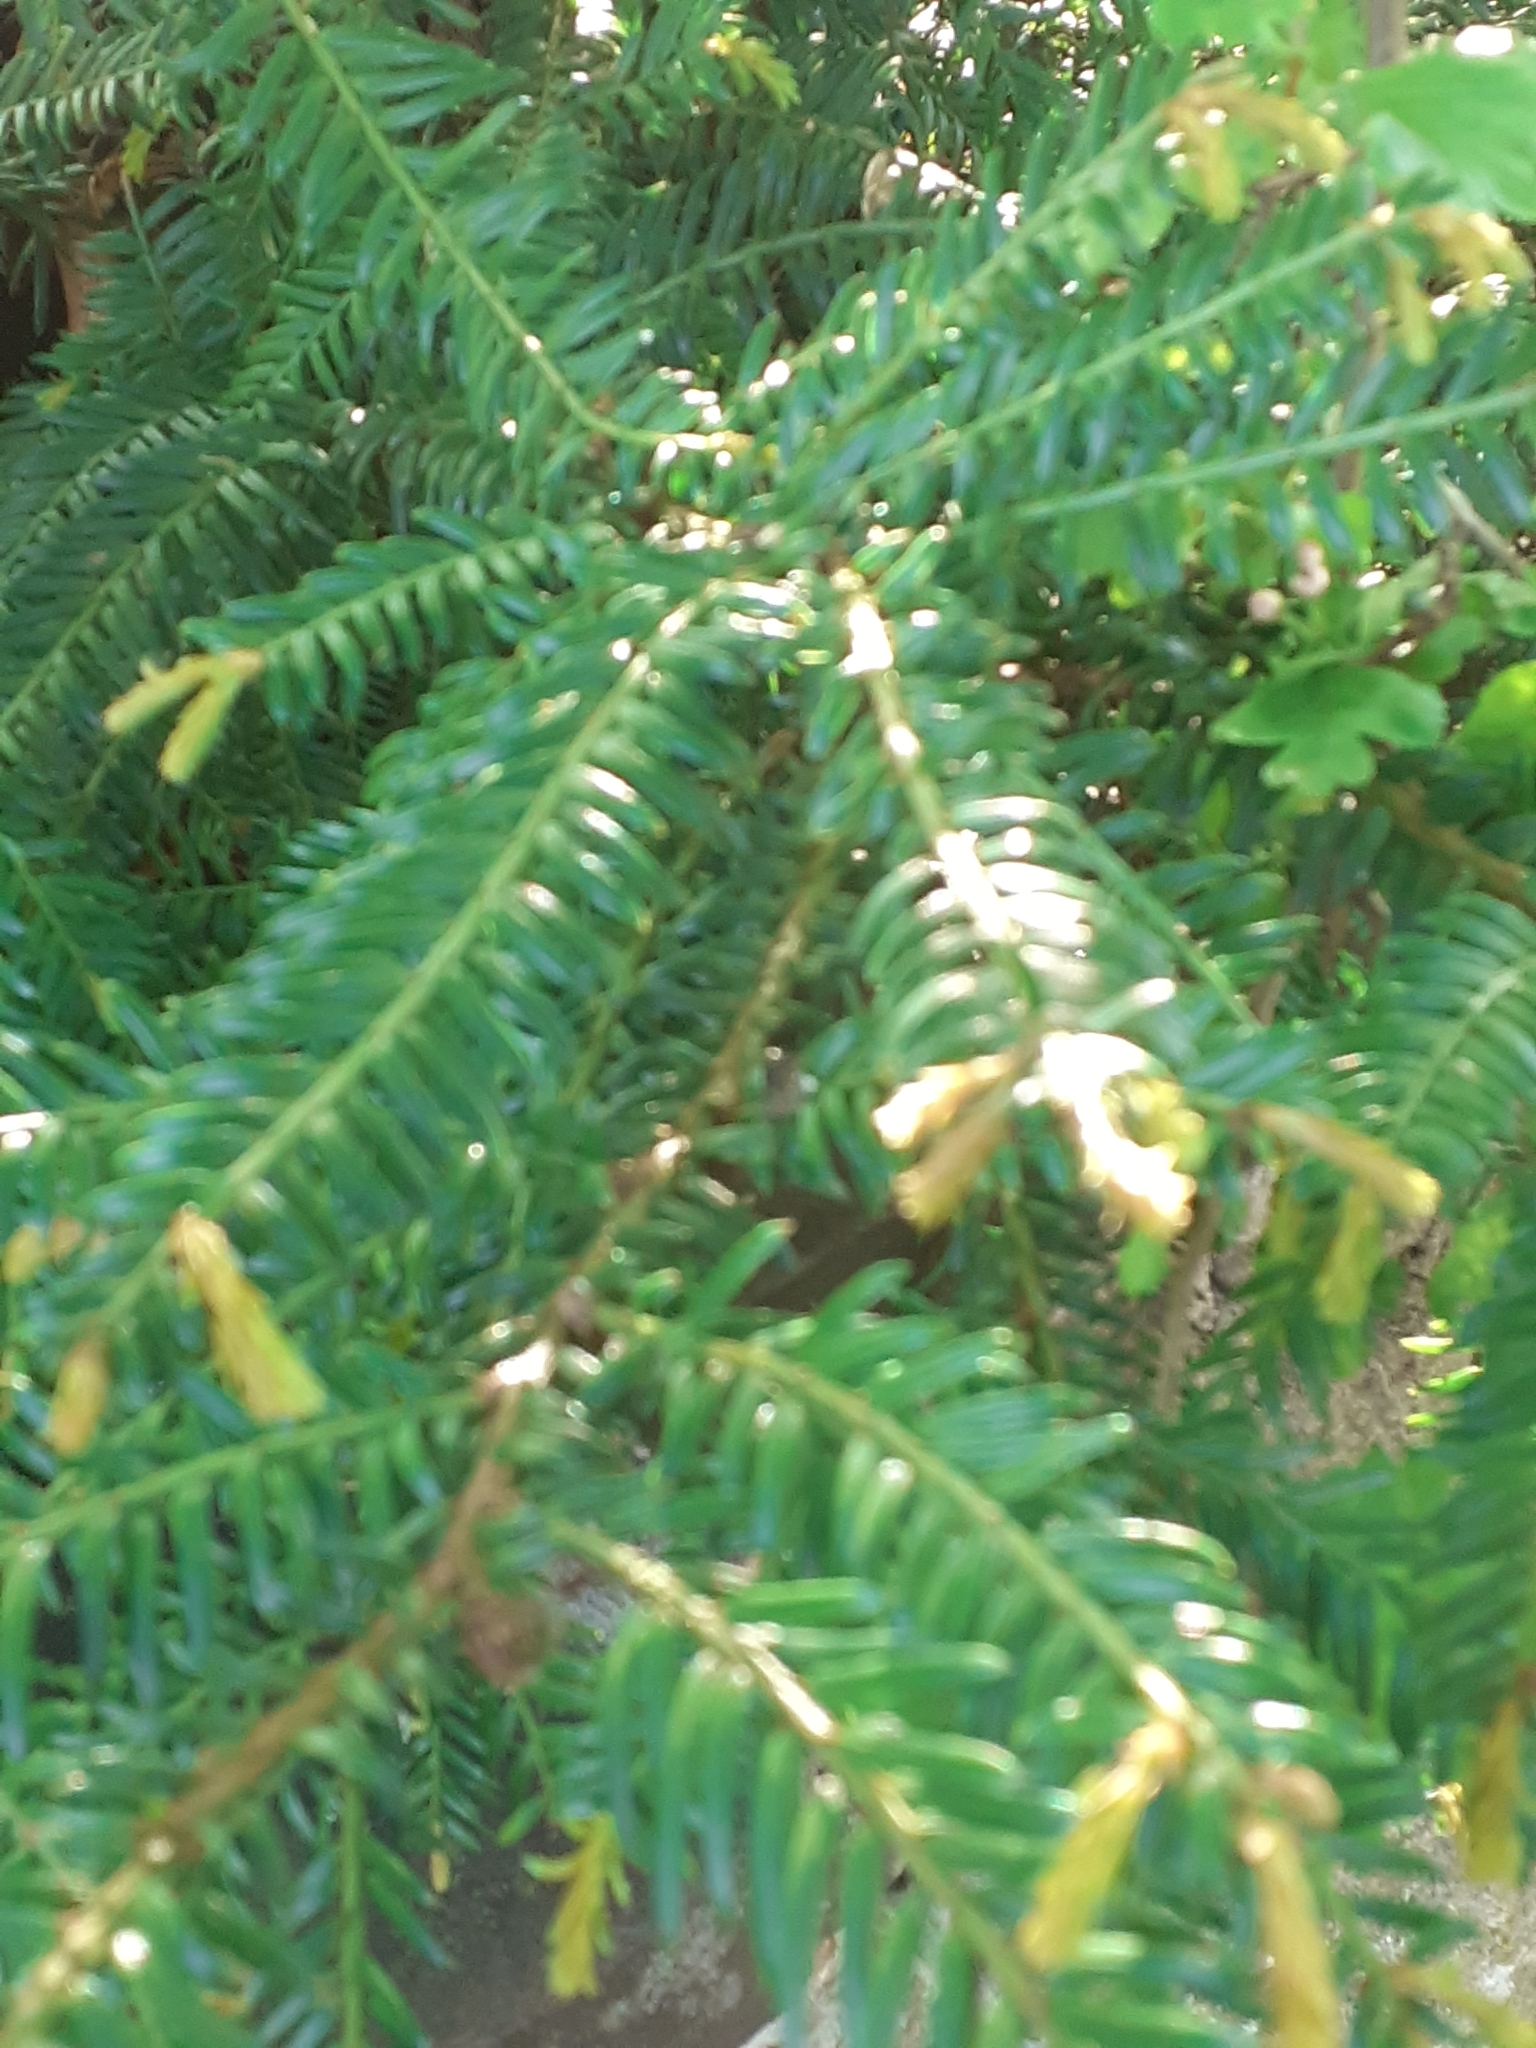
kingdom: Plantae
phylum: Tracheophyta
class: Pinopsida
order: Pinales
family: Taxaceae
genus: Taxus
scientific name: Taxus baccata
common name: Yew
